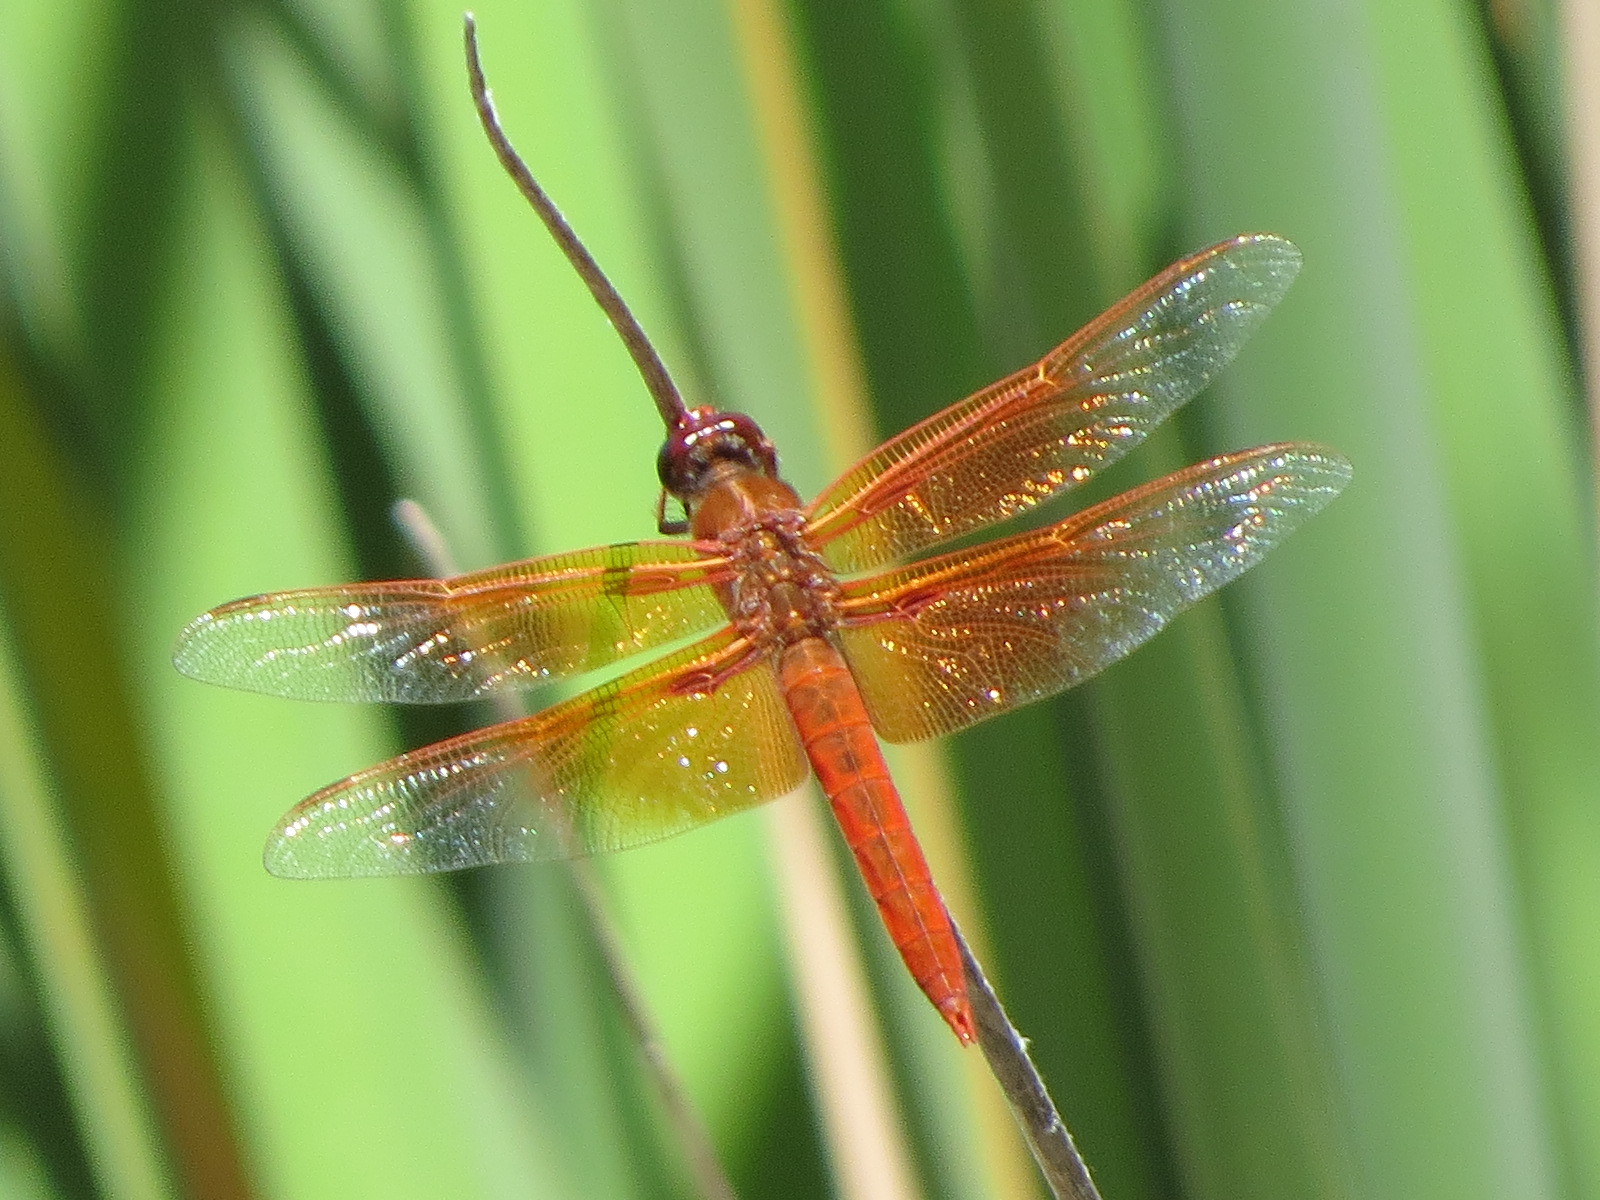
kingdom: Animalia
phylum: Arthropoda
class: Insecta
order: Odonata
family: Libellulidae
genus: Libellula
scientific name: Libellula saturata
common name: Flame skimmer
